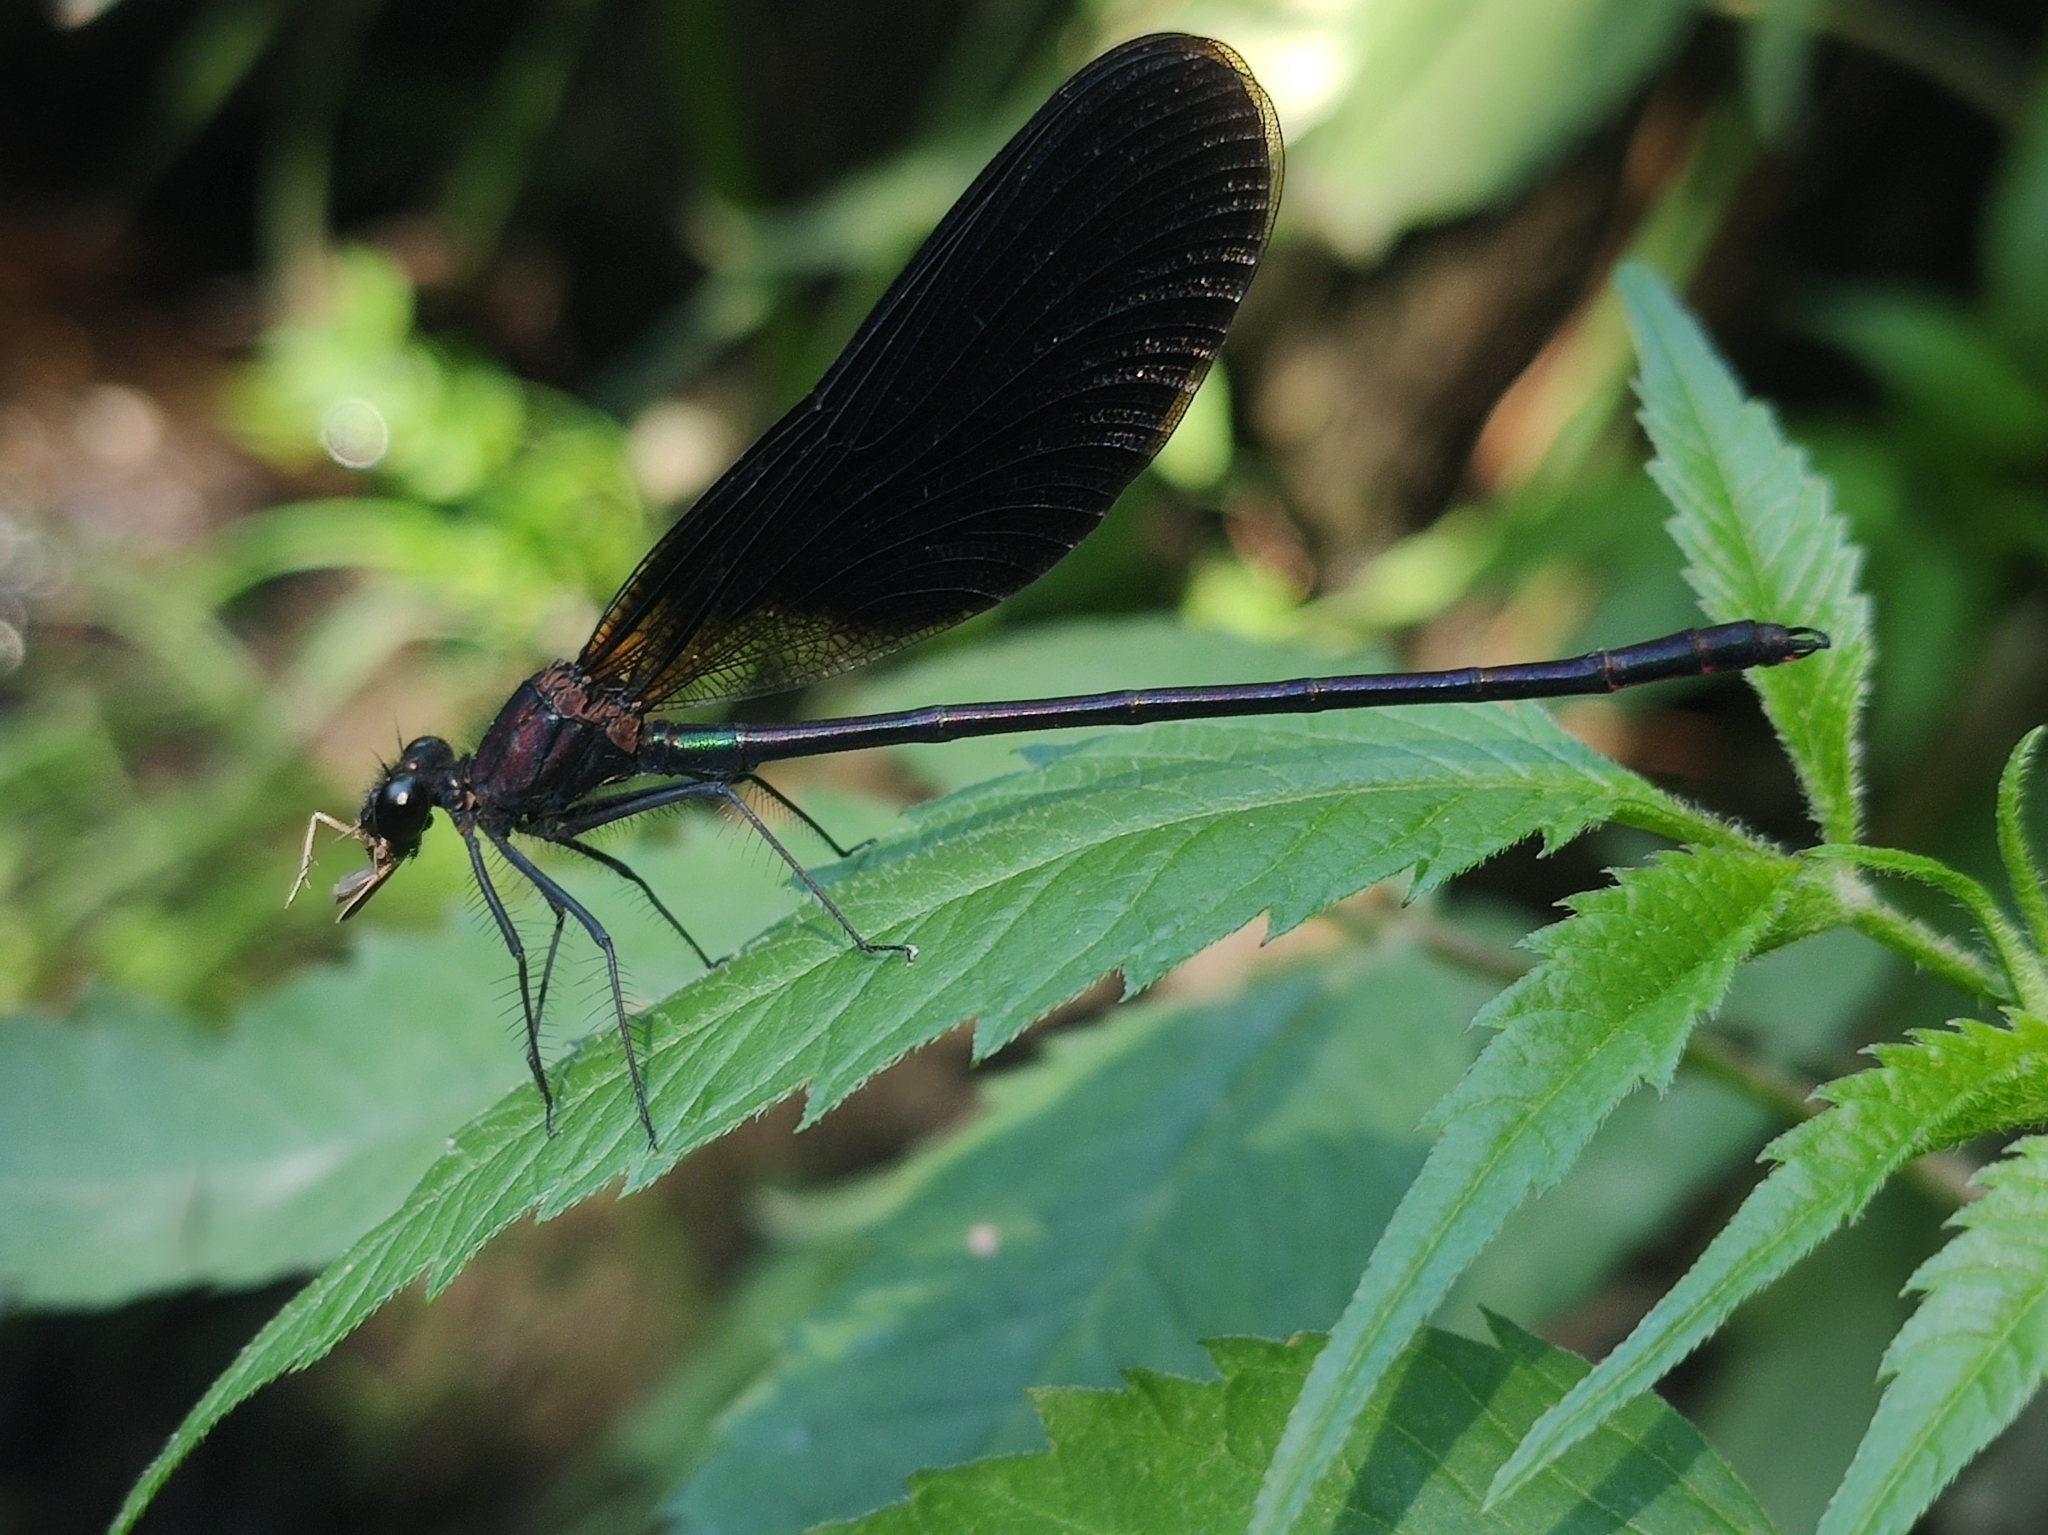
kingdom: Animalia
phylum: Arthropoda
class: Insecta
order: Odonata
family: Calopterygidae
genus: Calopteryx
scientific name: Calopteryx haemorrhoidalis
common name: Copper demoiselle
